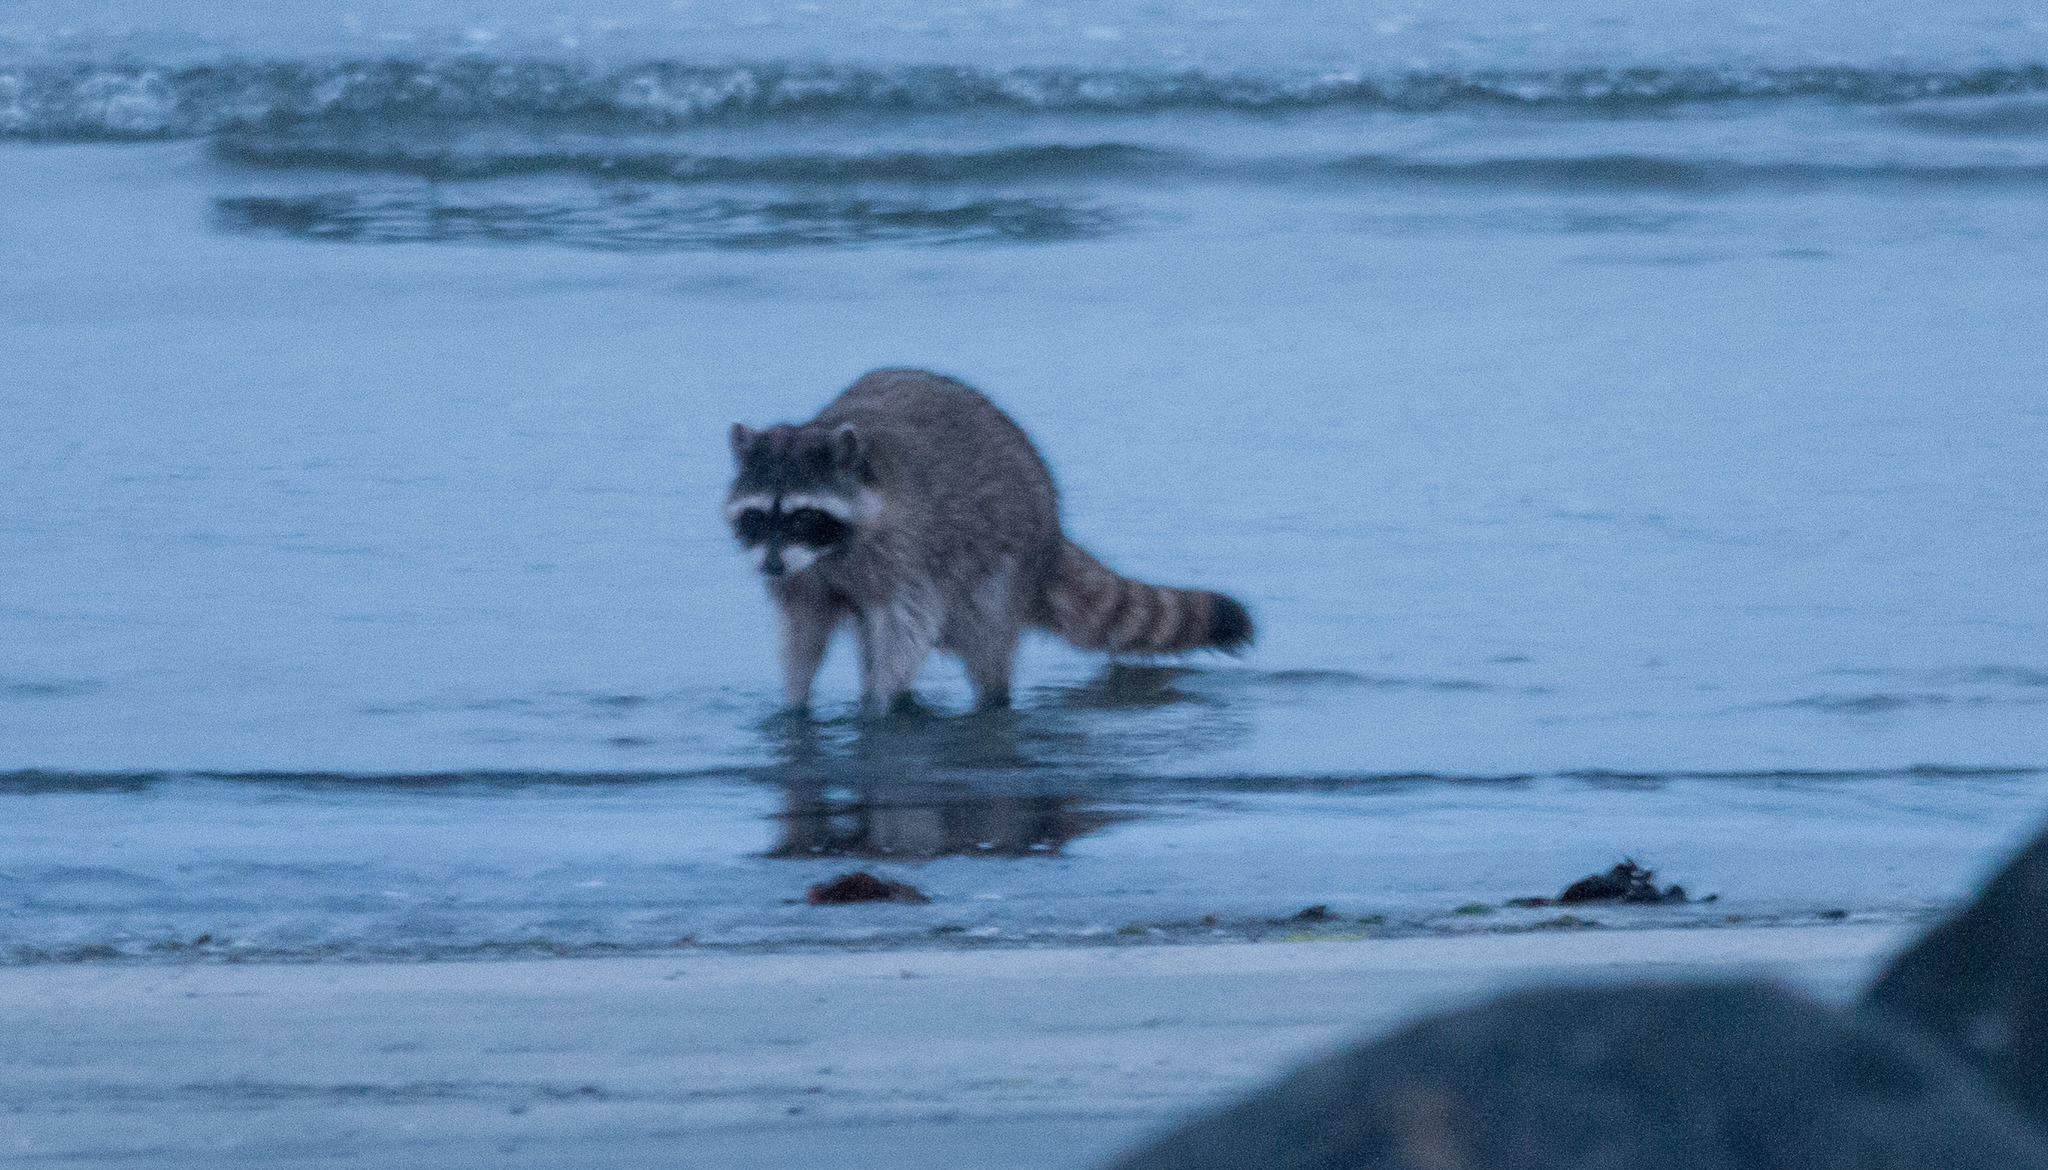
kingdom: Animalia
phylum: Chordata
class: Mammalia
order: Carnivora
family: Procyonidae
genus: Procyon
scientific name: Procyon lotor
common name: Raccoon
